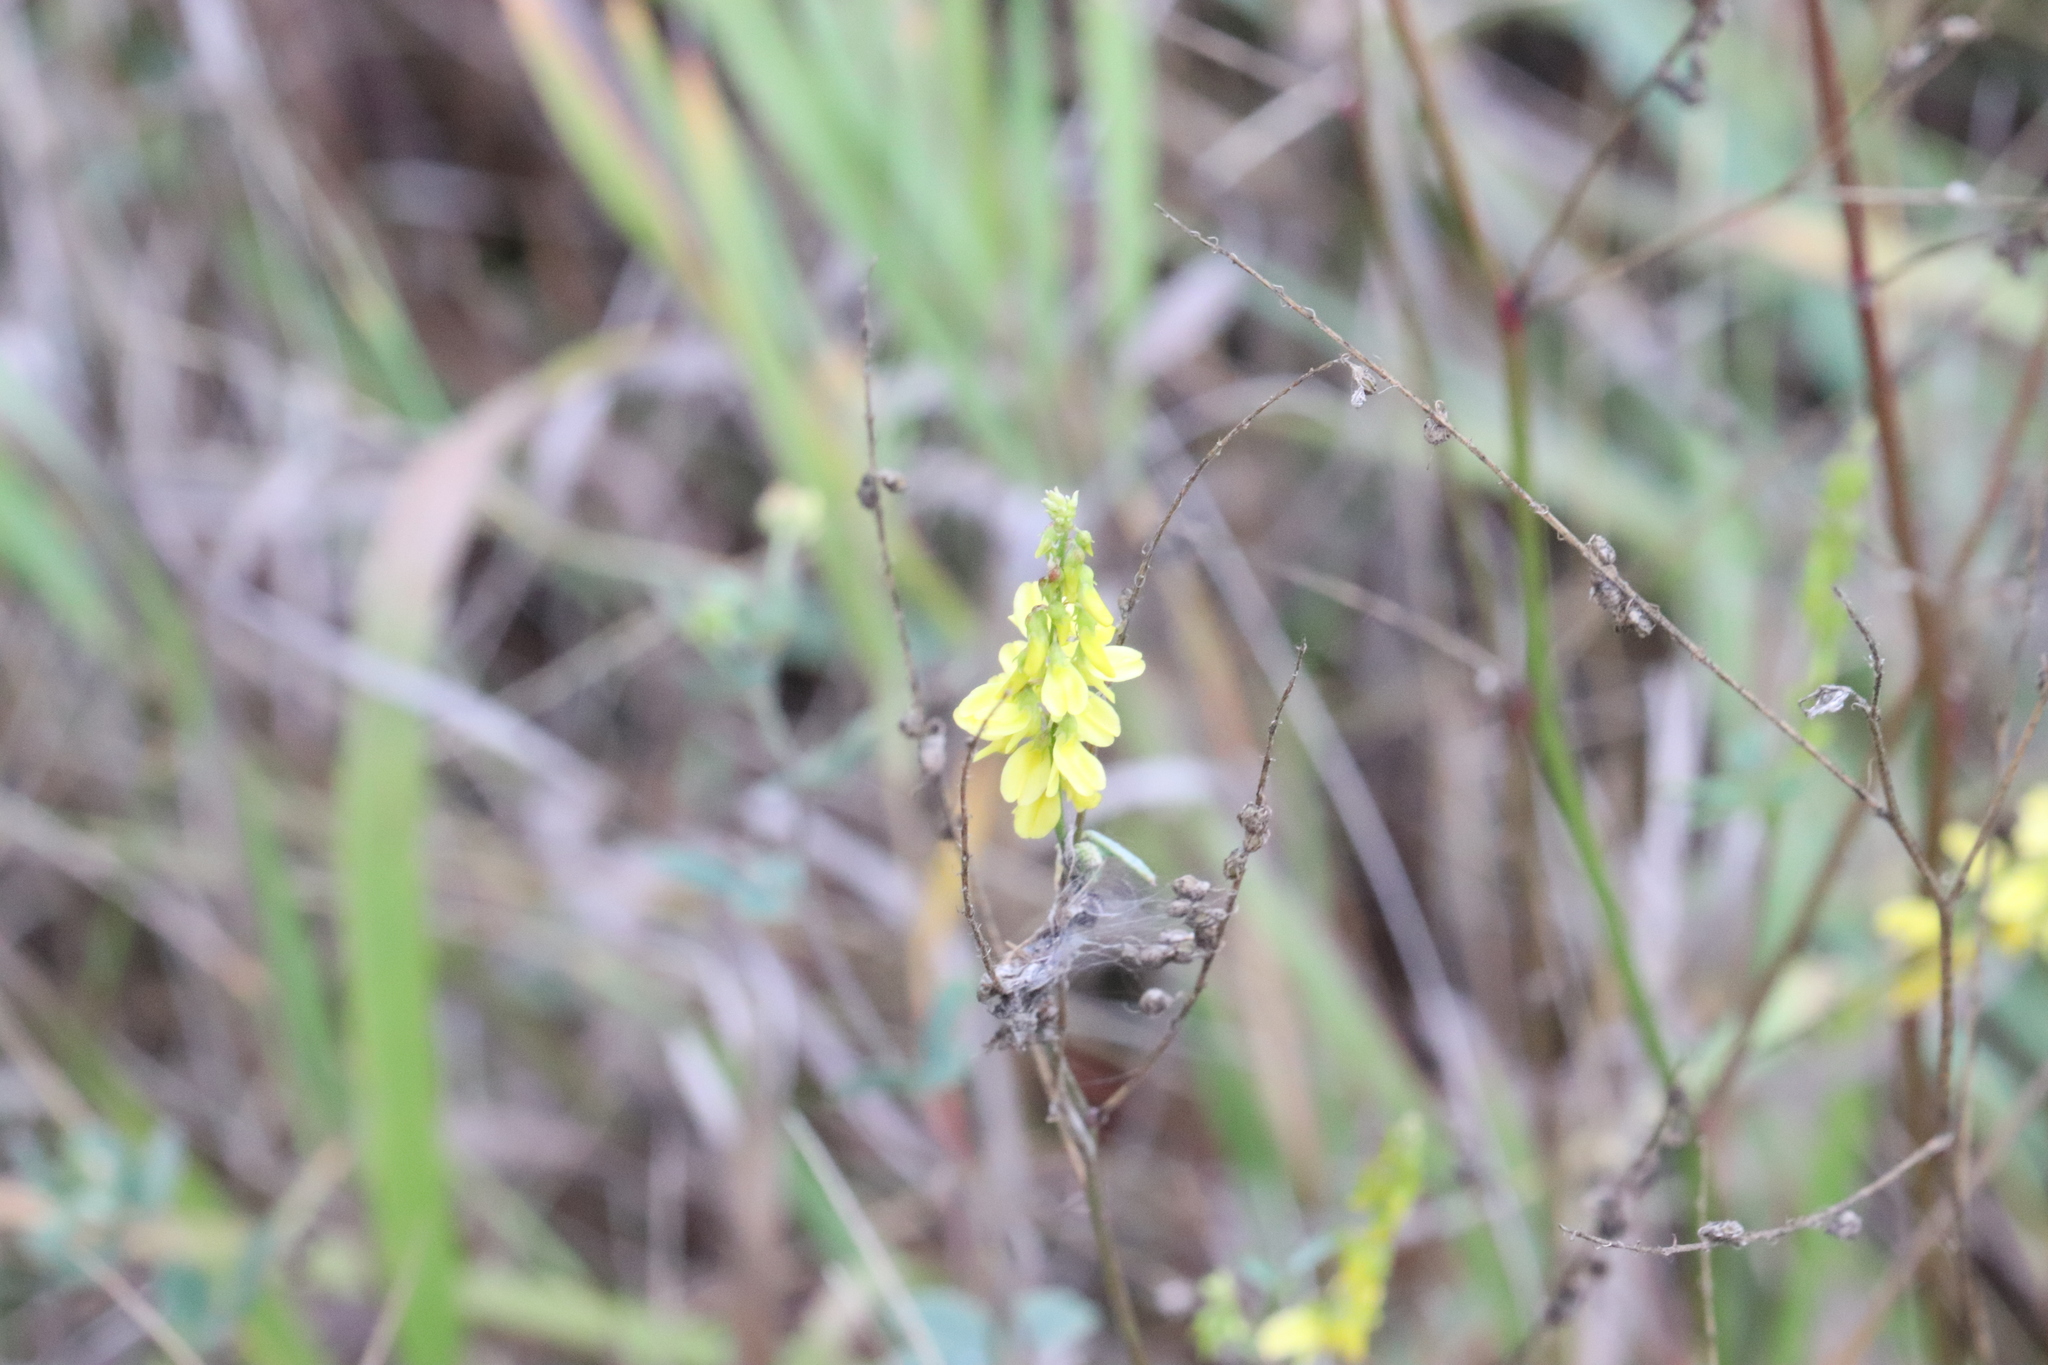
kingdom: Plantae
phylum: Tracheophyta
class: Magnoliopsida
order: Fabales
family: Fabaceae
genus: Melilotus
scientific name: Melilotus officinalis
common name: Sweetclover
